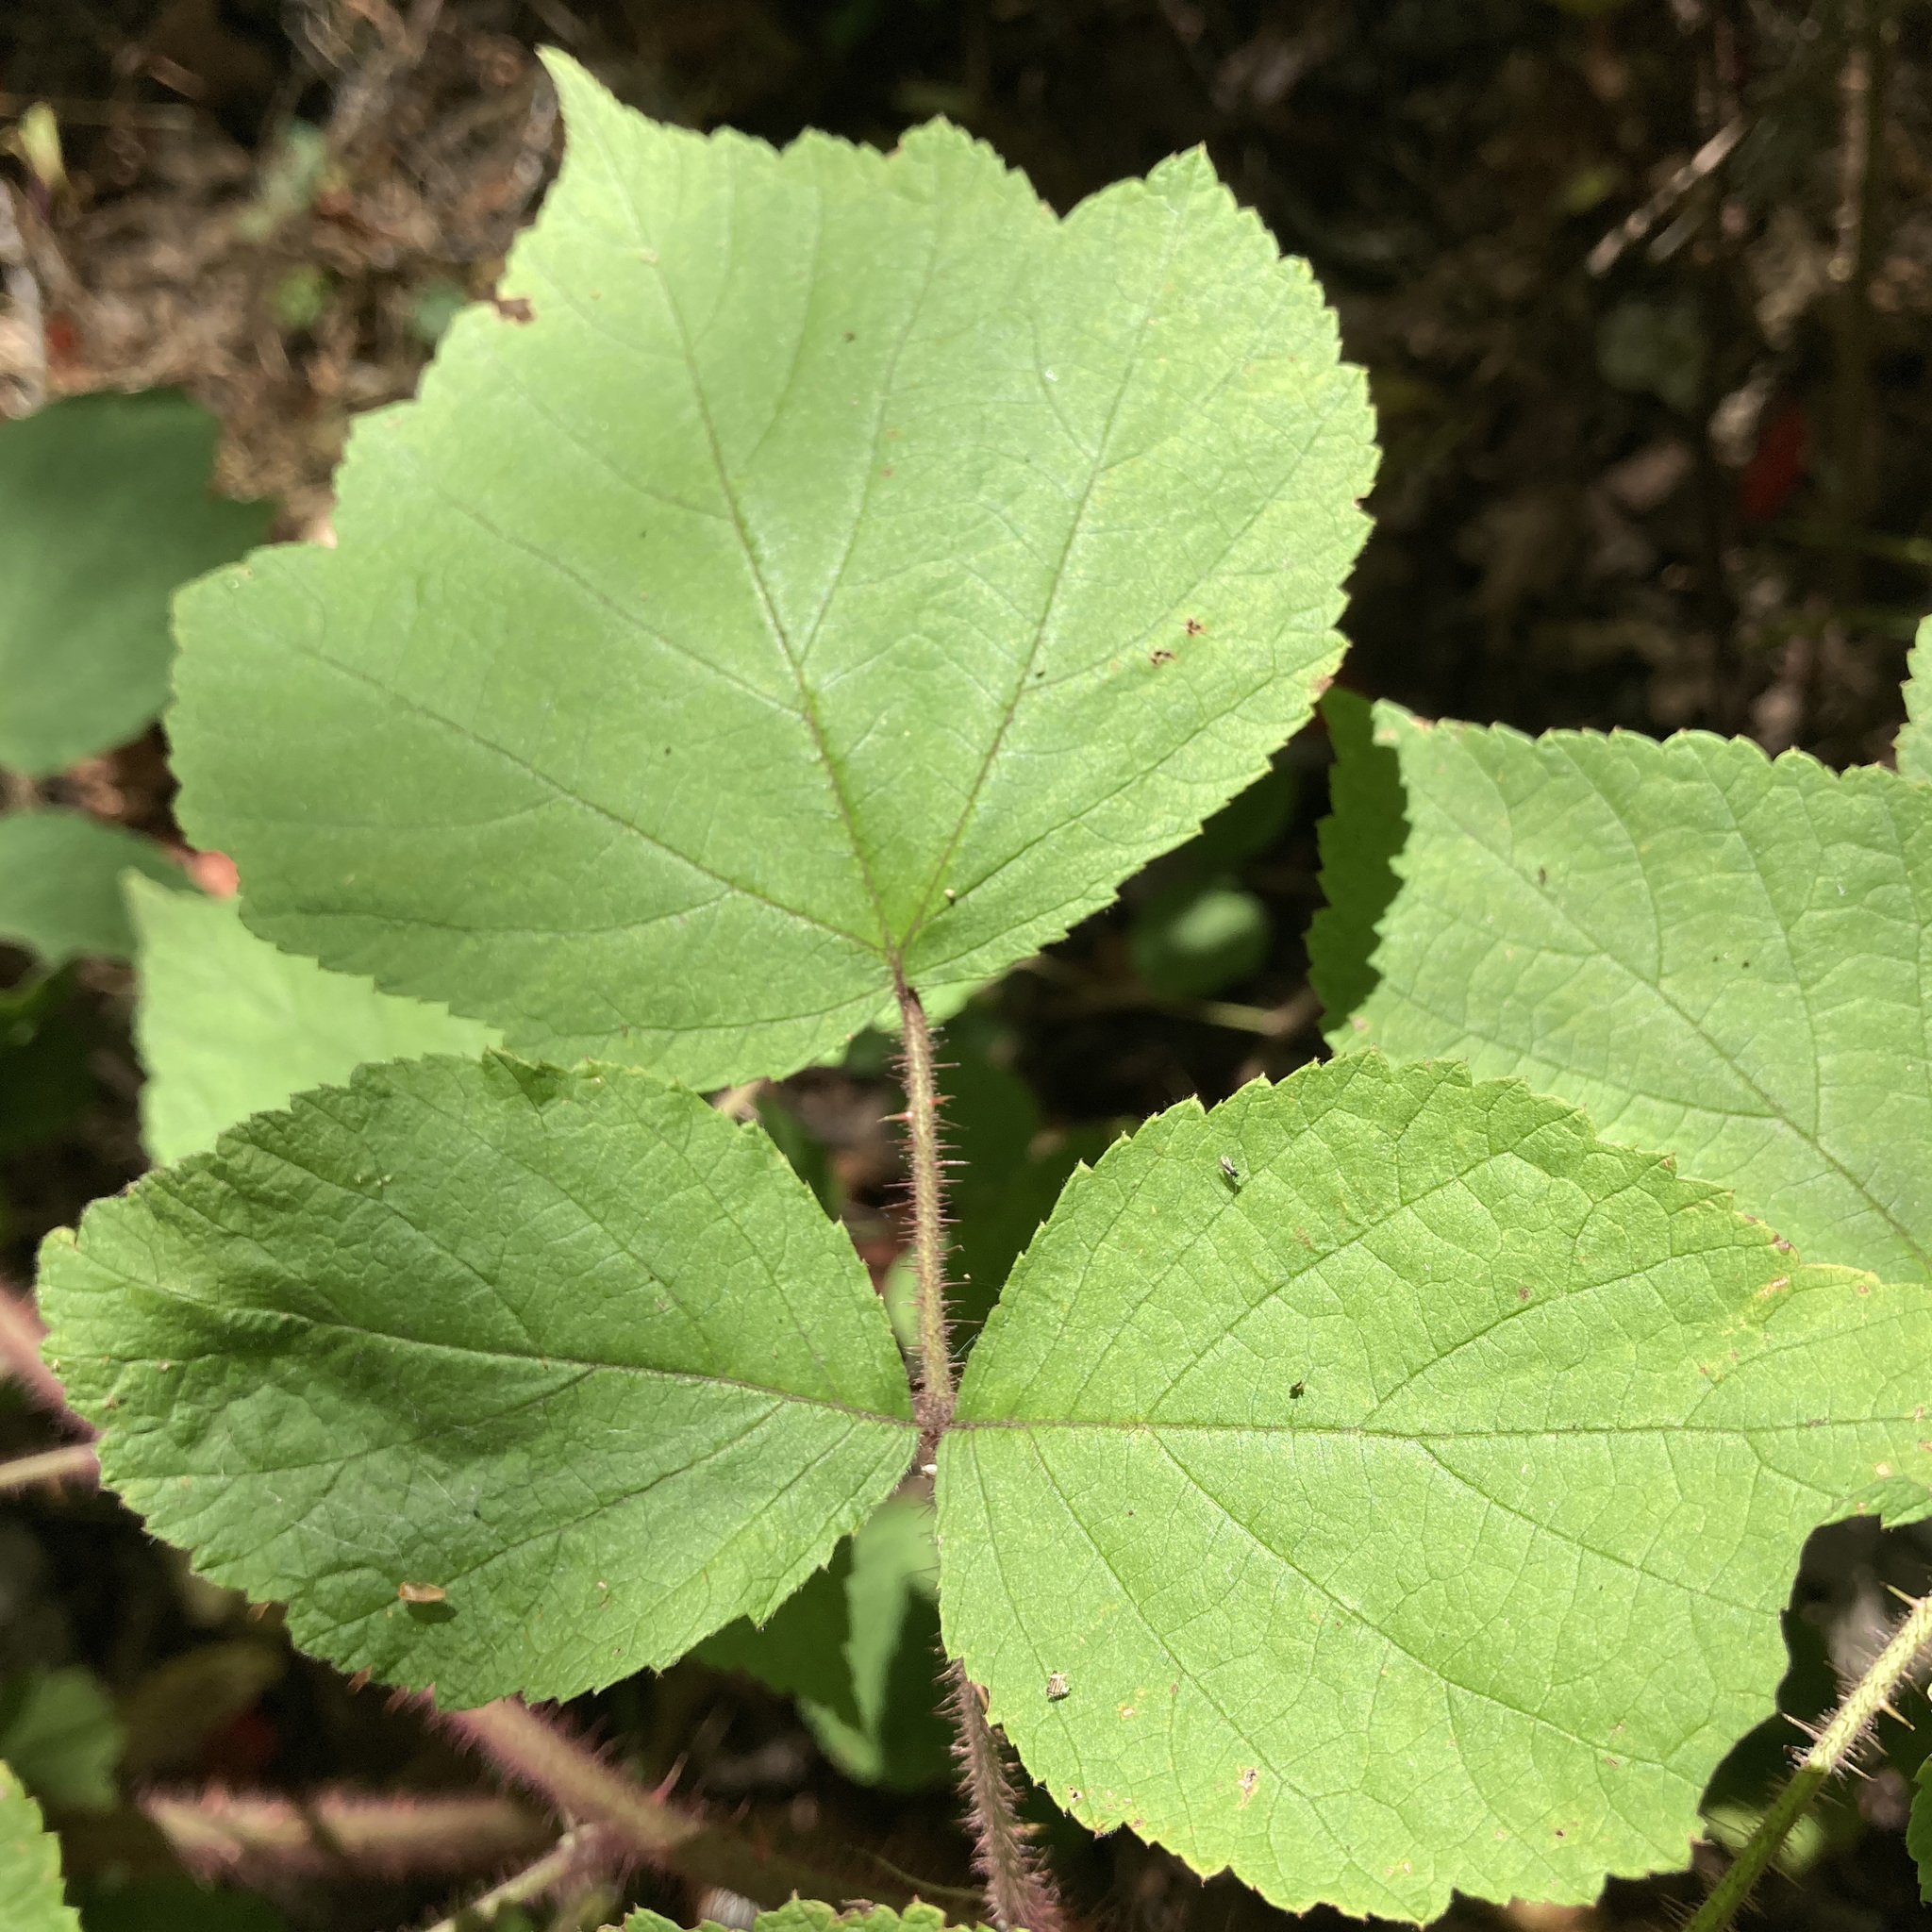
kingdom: Plantae
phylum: Tracheophyta
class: Magnoliopsida
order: Rosales
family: Rosaceae
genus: Rubus
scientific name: Rubus phoenicolasius
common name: Japanese wineberry
